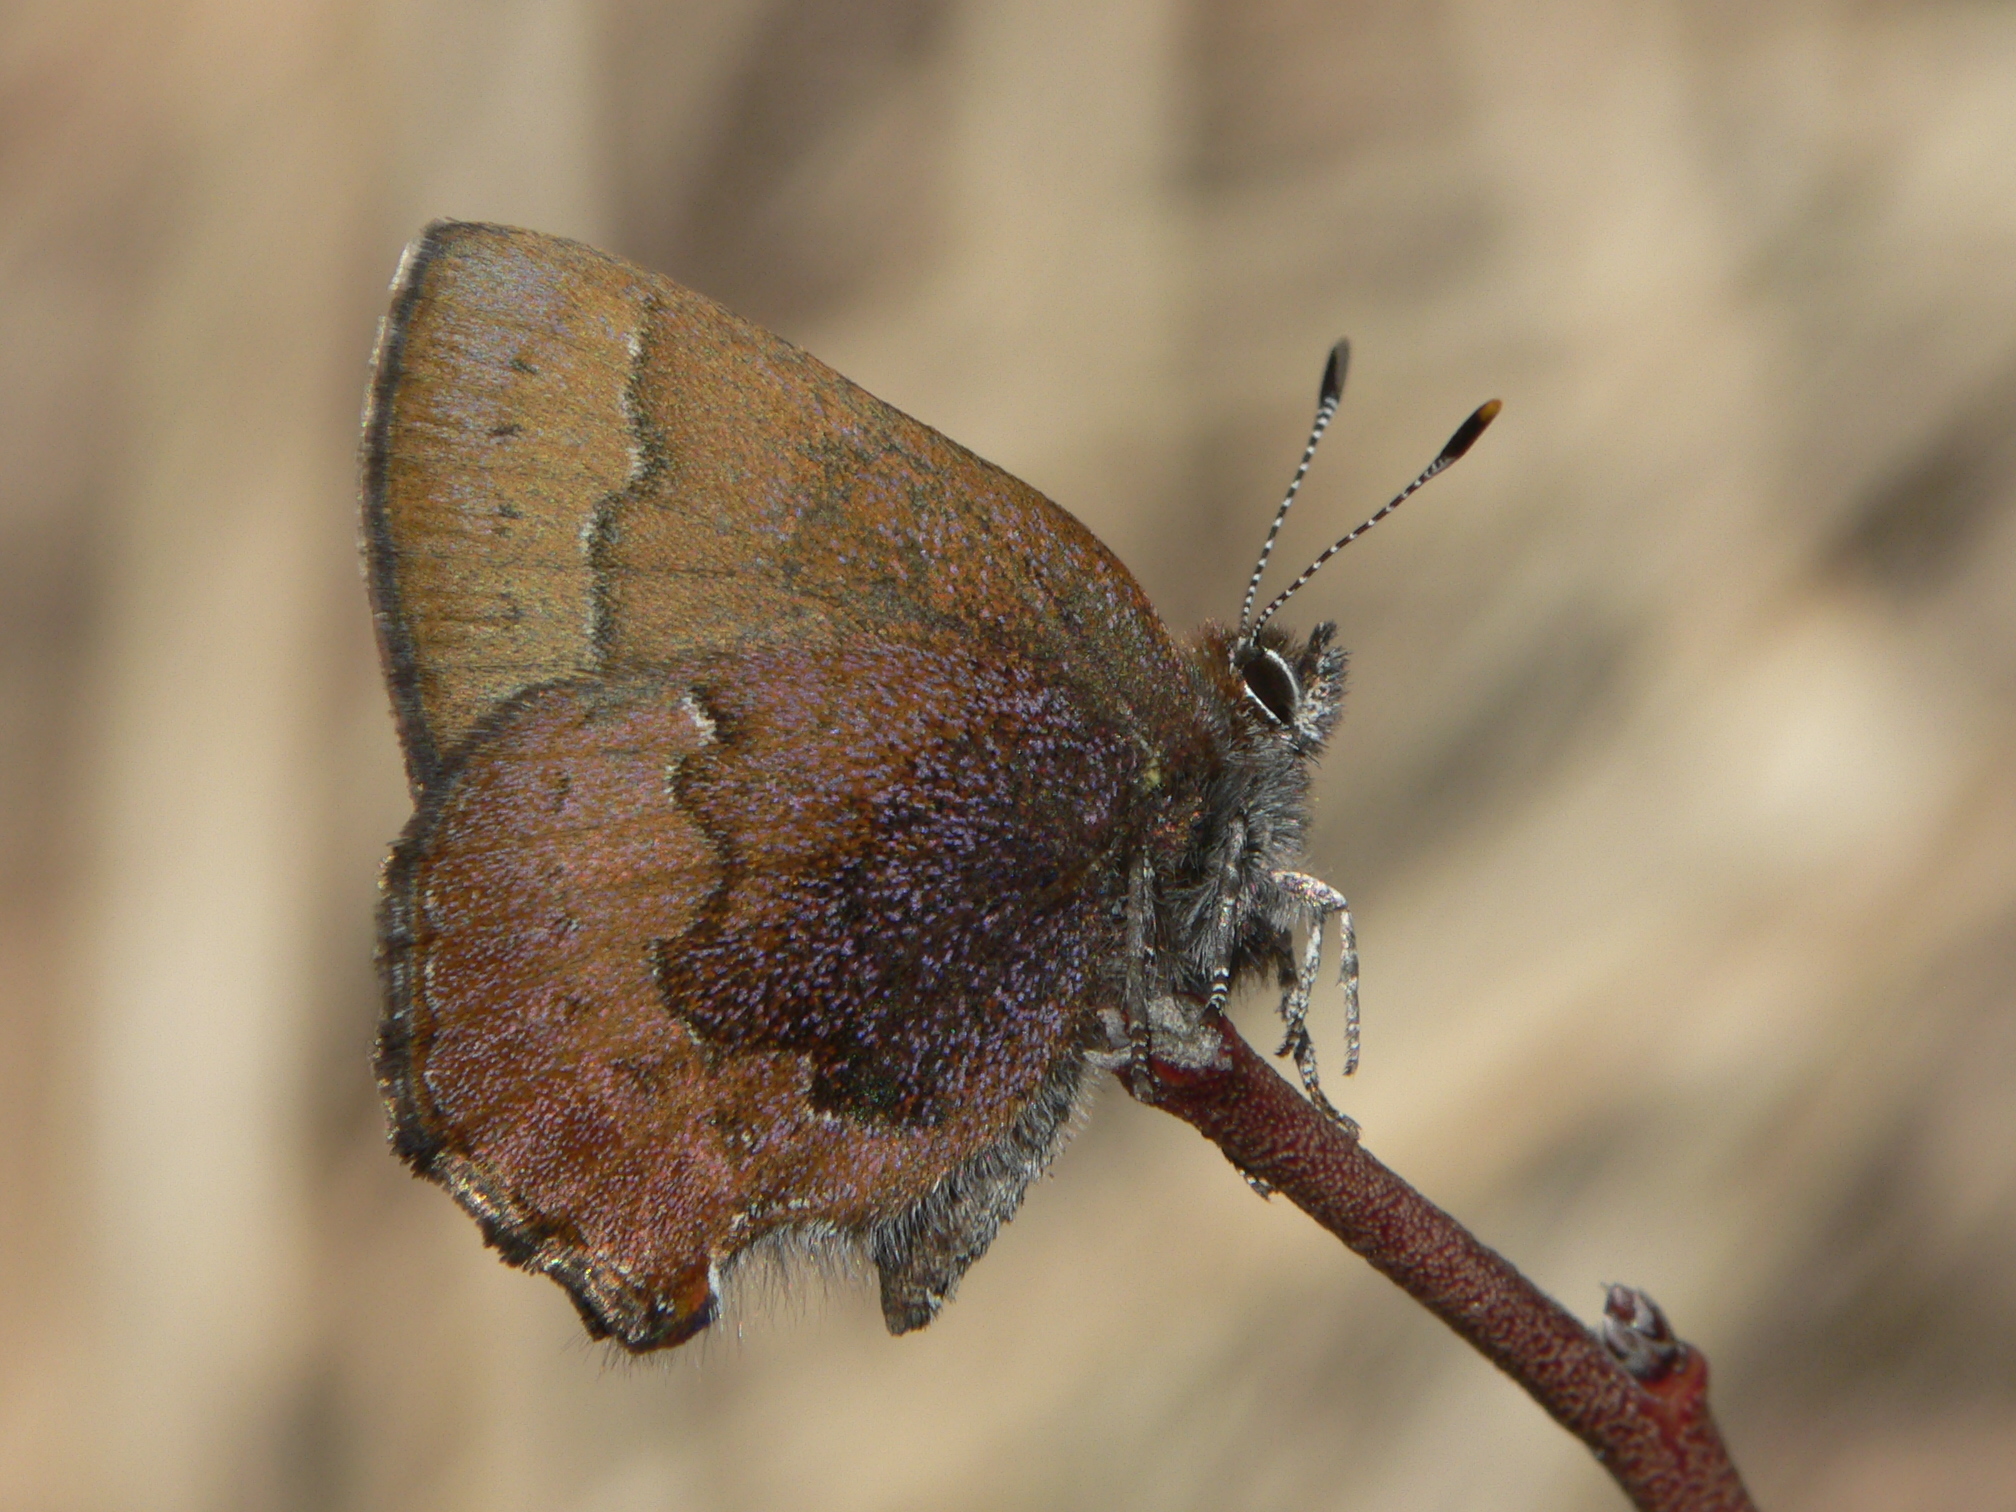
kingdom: Animalia
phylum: Arthropoda
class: Insecta
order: Lepidoptera
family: Lycaenidae
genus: Incisalia
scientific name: Incisalia irioides
